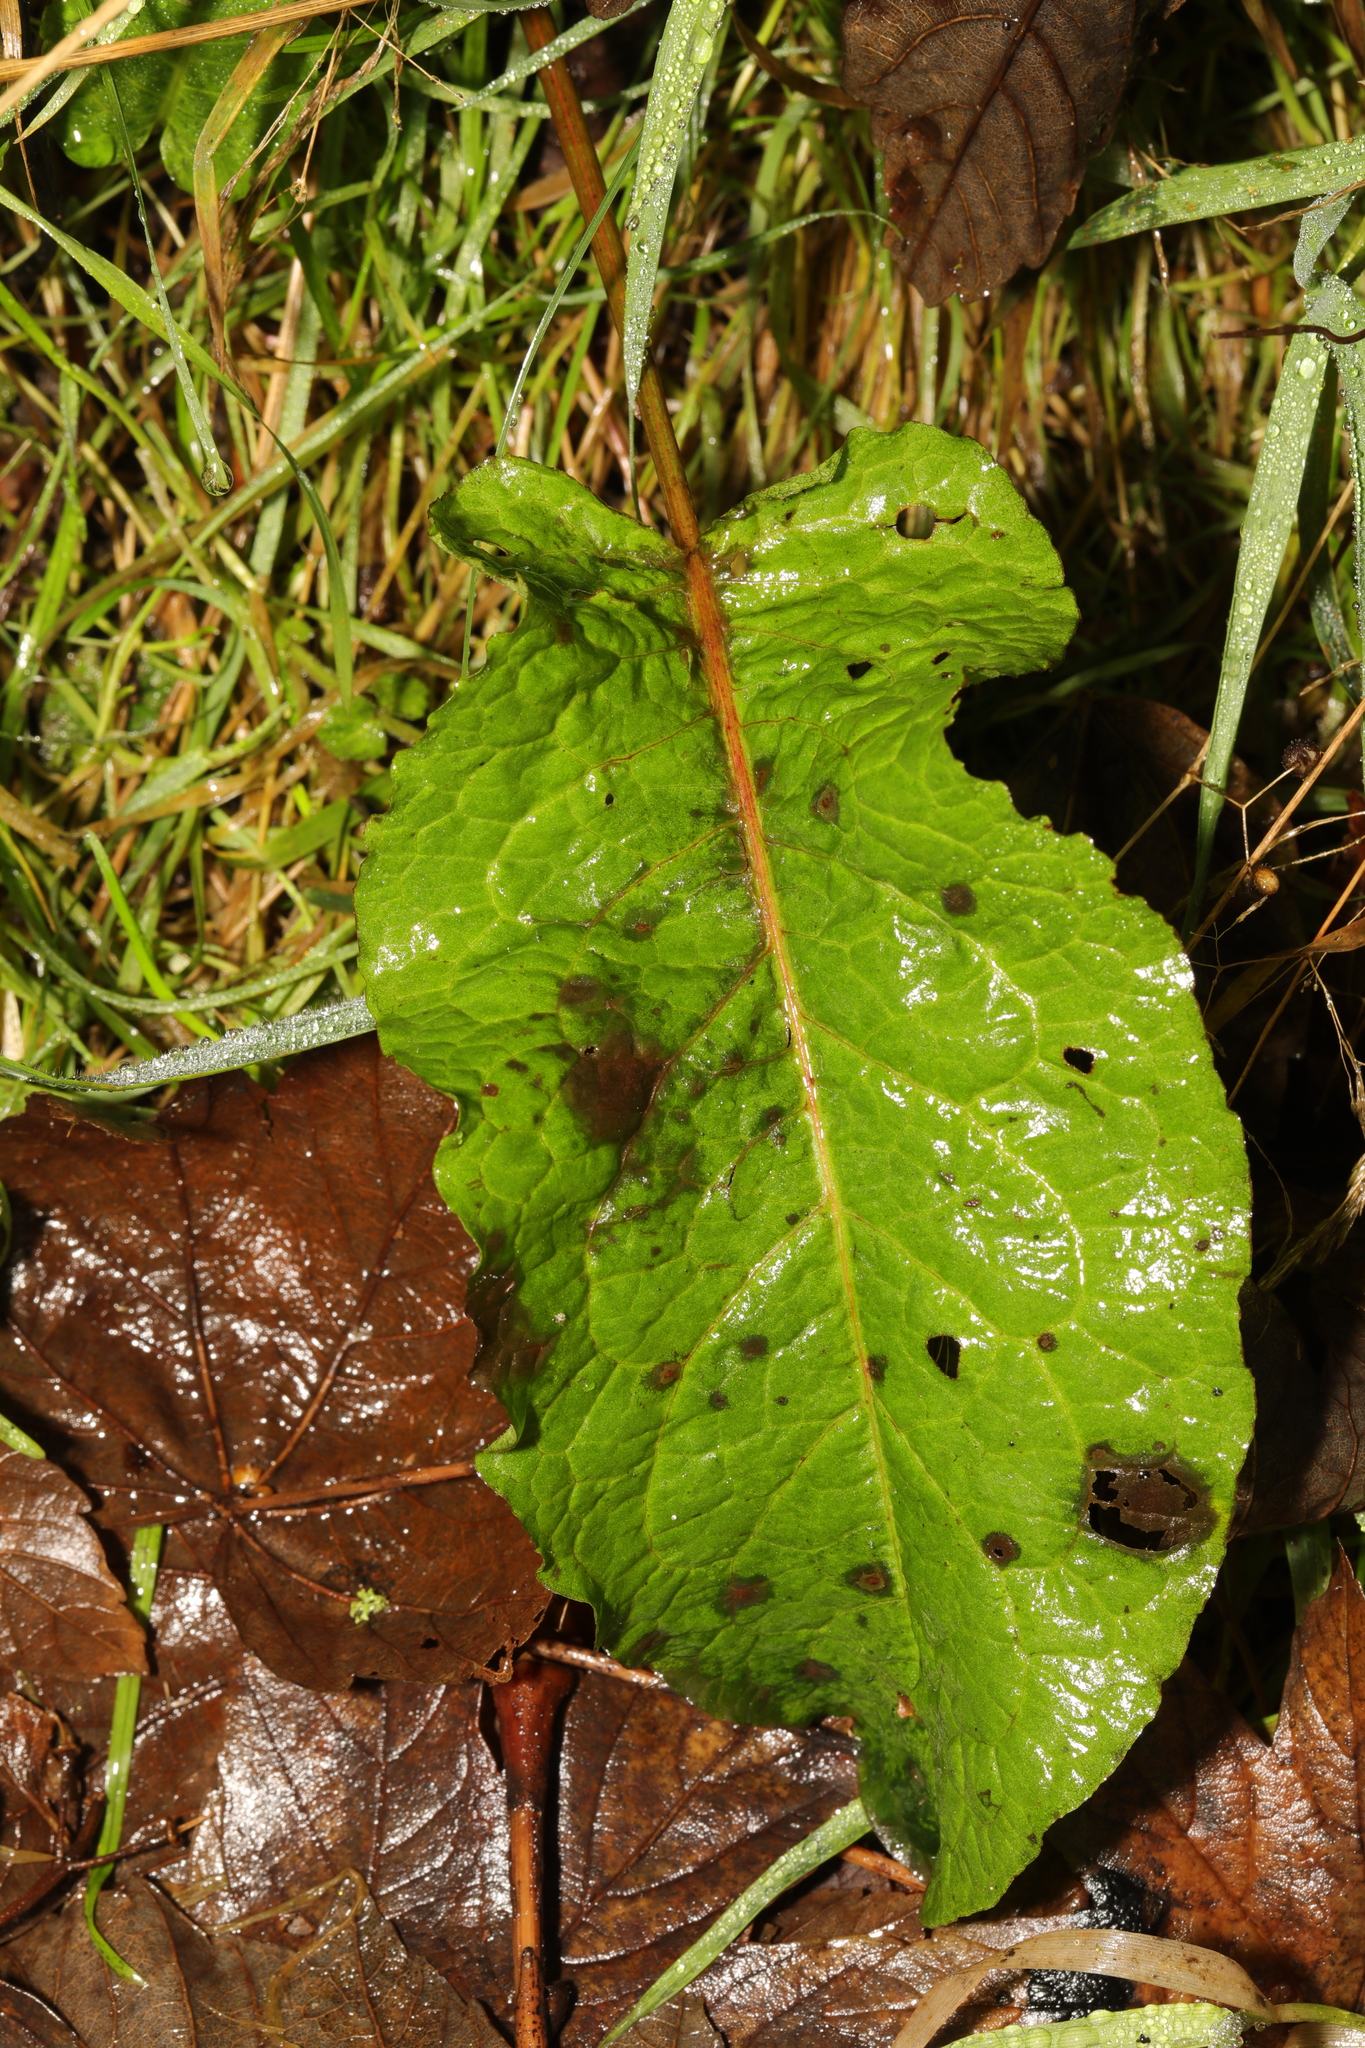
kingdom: Plantae
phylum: Tracheophyta
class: Magnoliopsida
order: Caryophyllales
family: Polygonaceae
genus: Rumex
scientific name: Rumex obtusifolius
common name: Bitter dock
